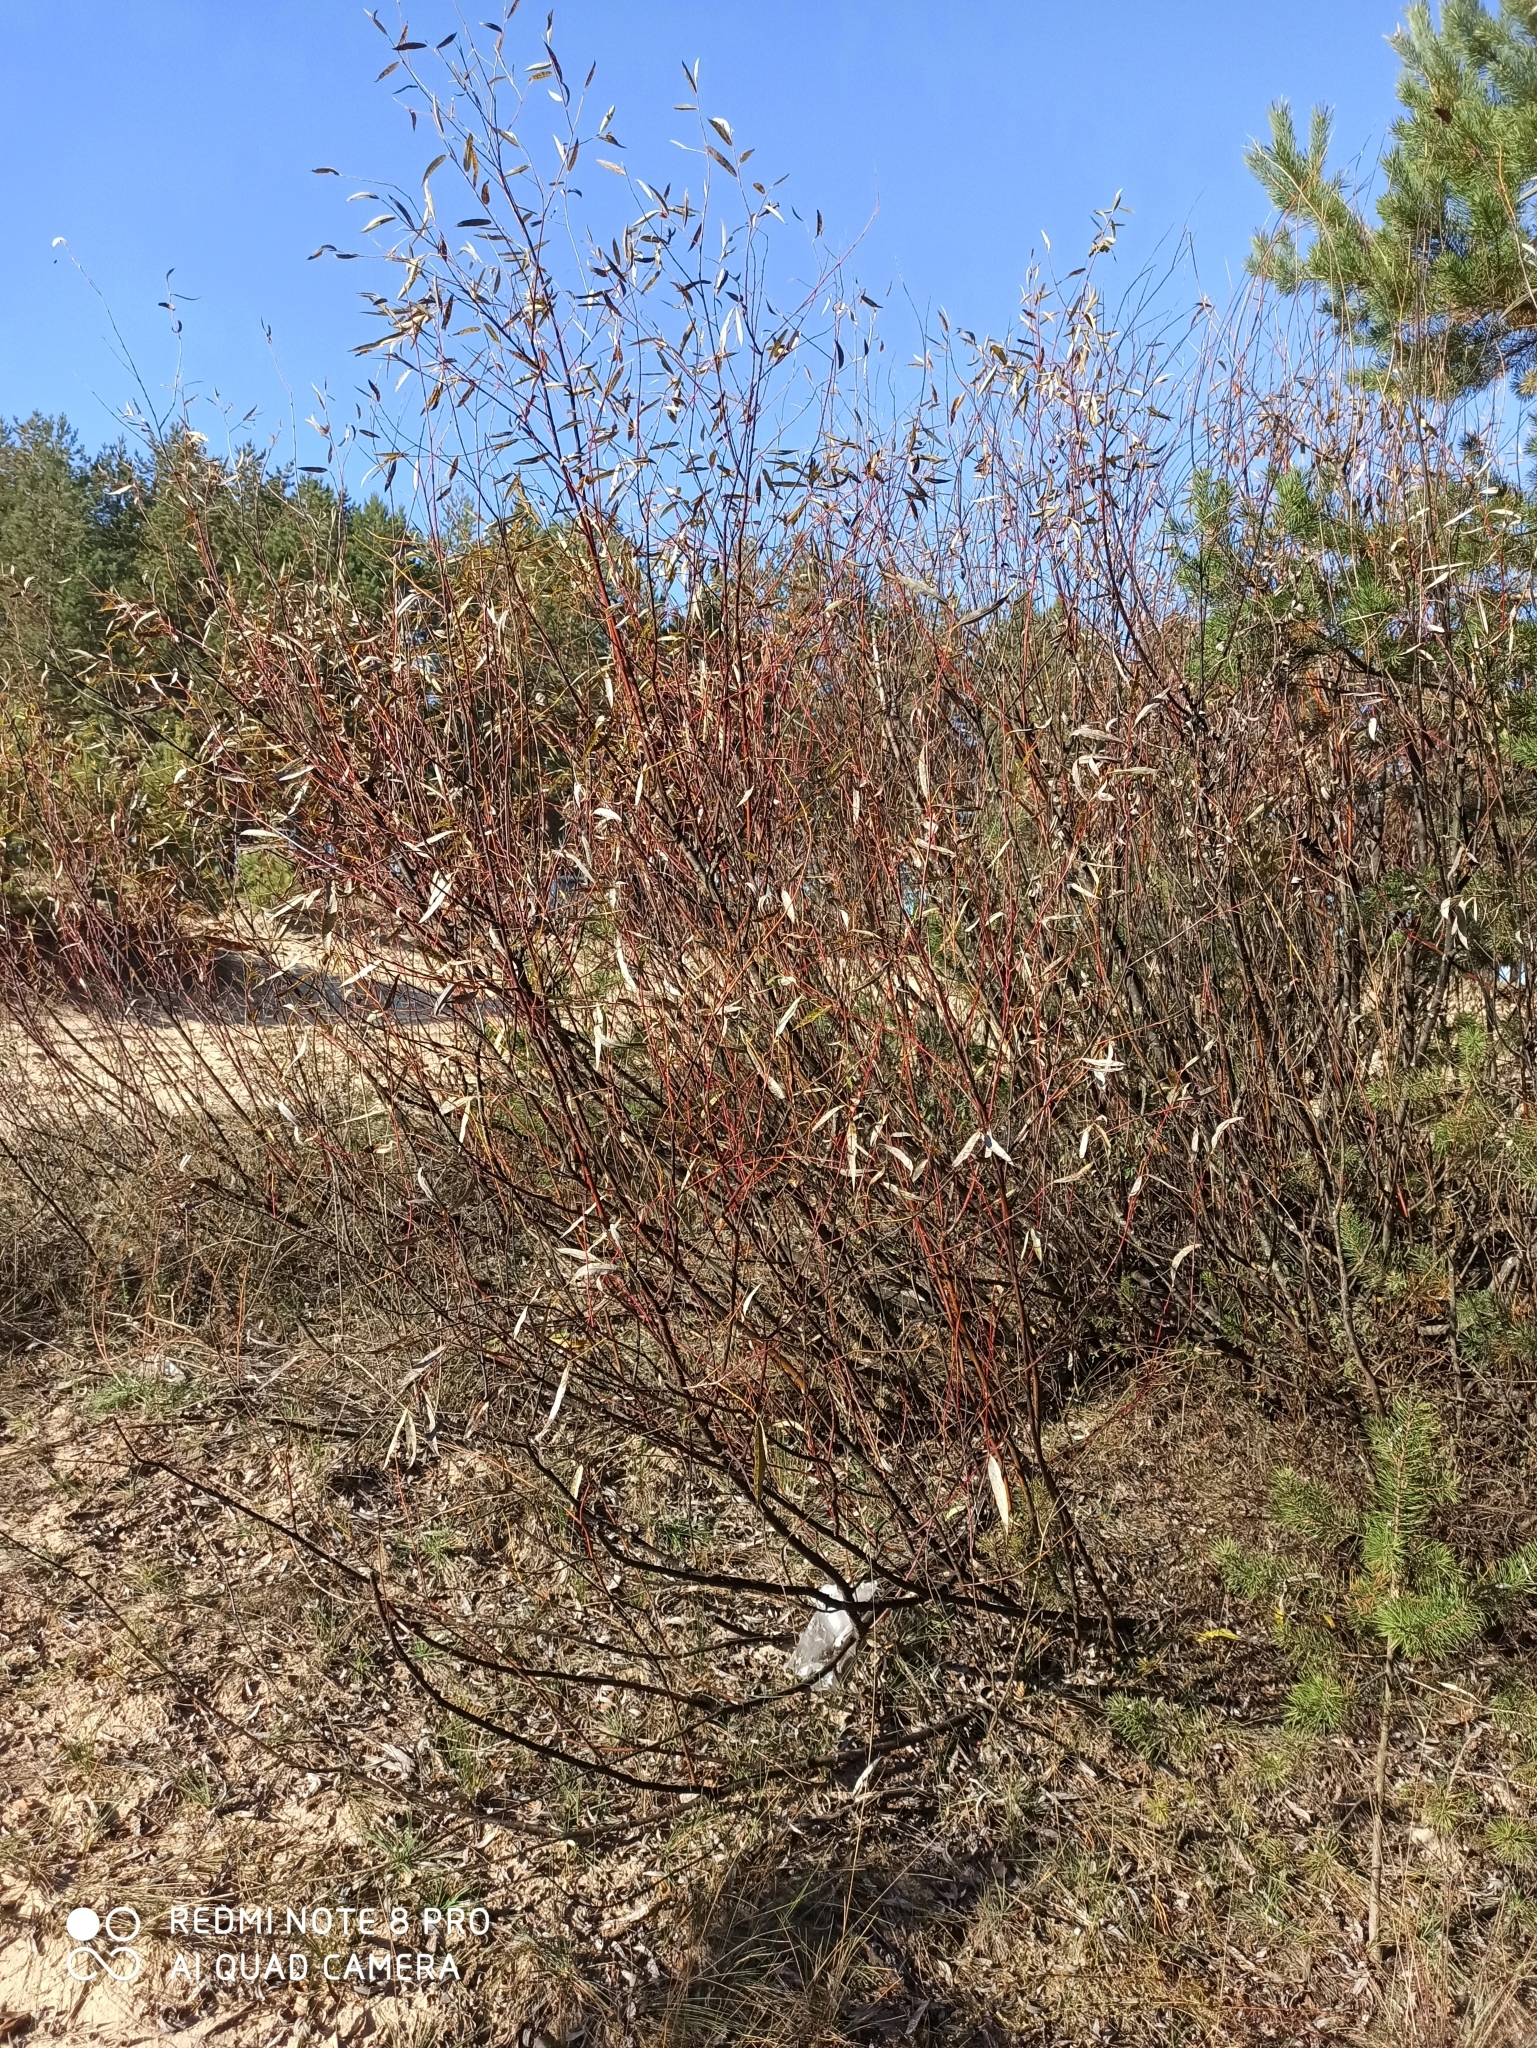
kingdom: Plantae
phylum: Tracheophyta
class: Magnoliopsida
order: Malpighiales
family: Salicaceae
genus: Salix
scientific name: Salix acutifolia
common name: Siberian violet-willow
